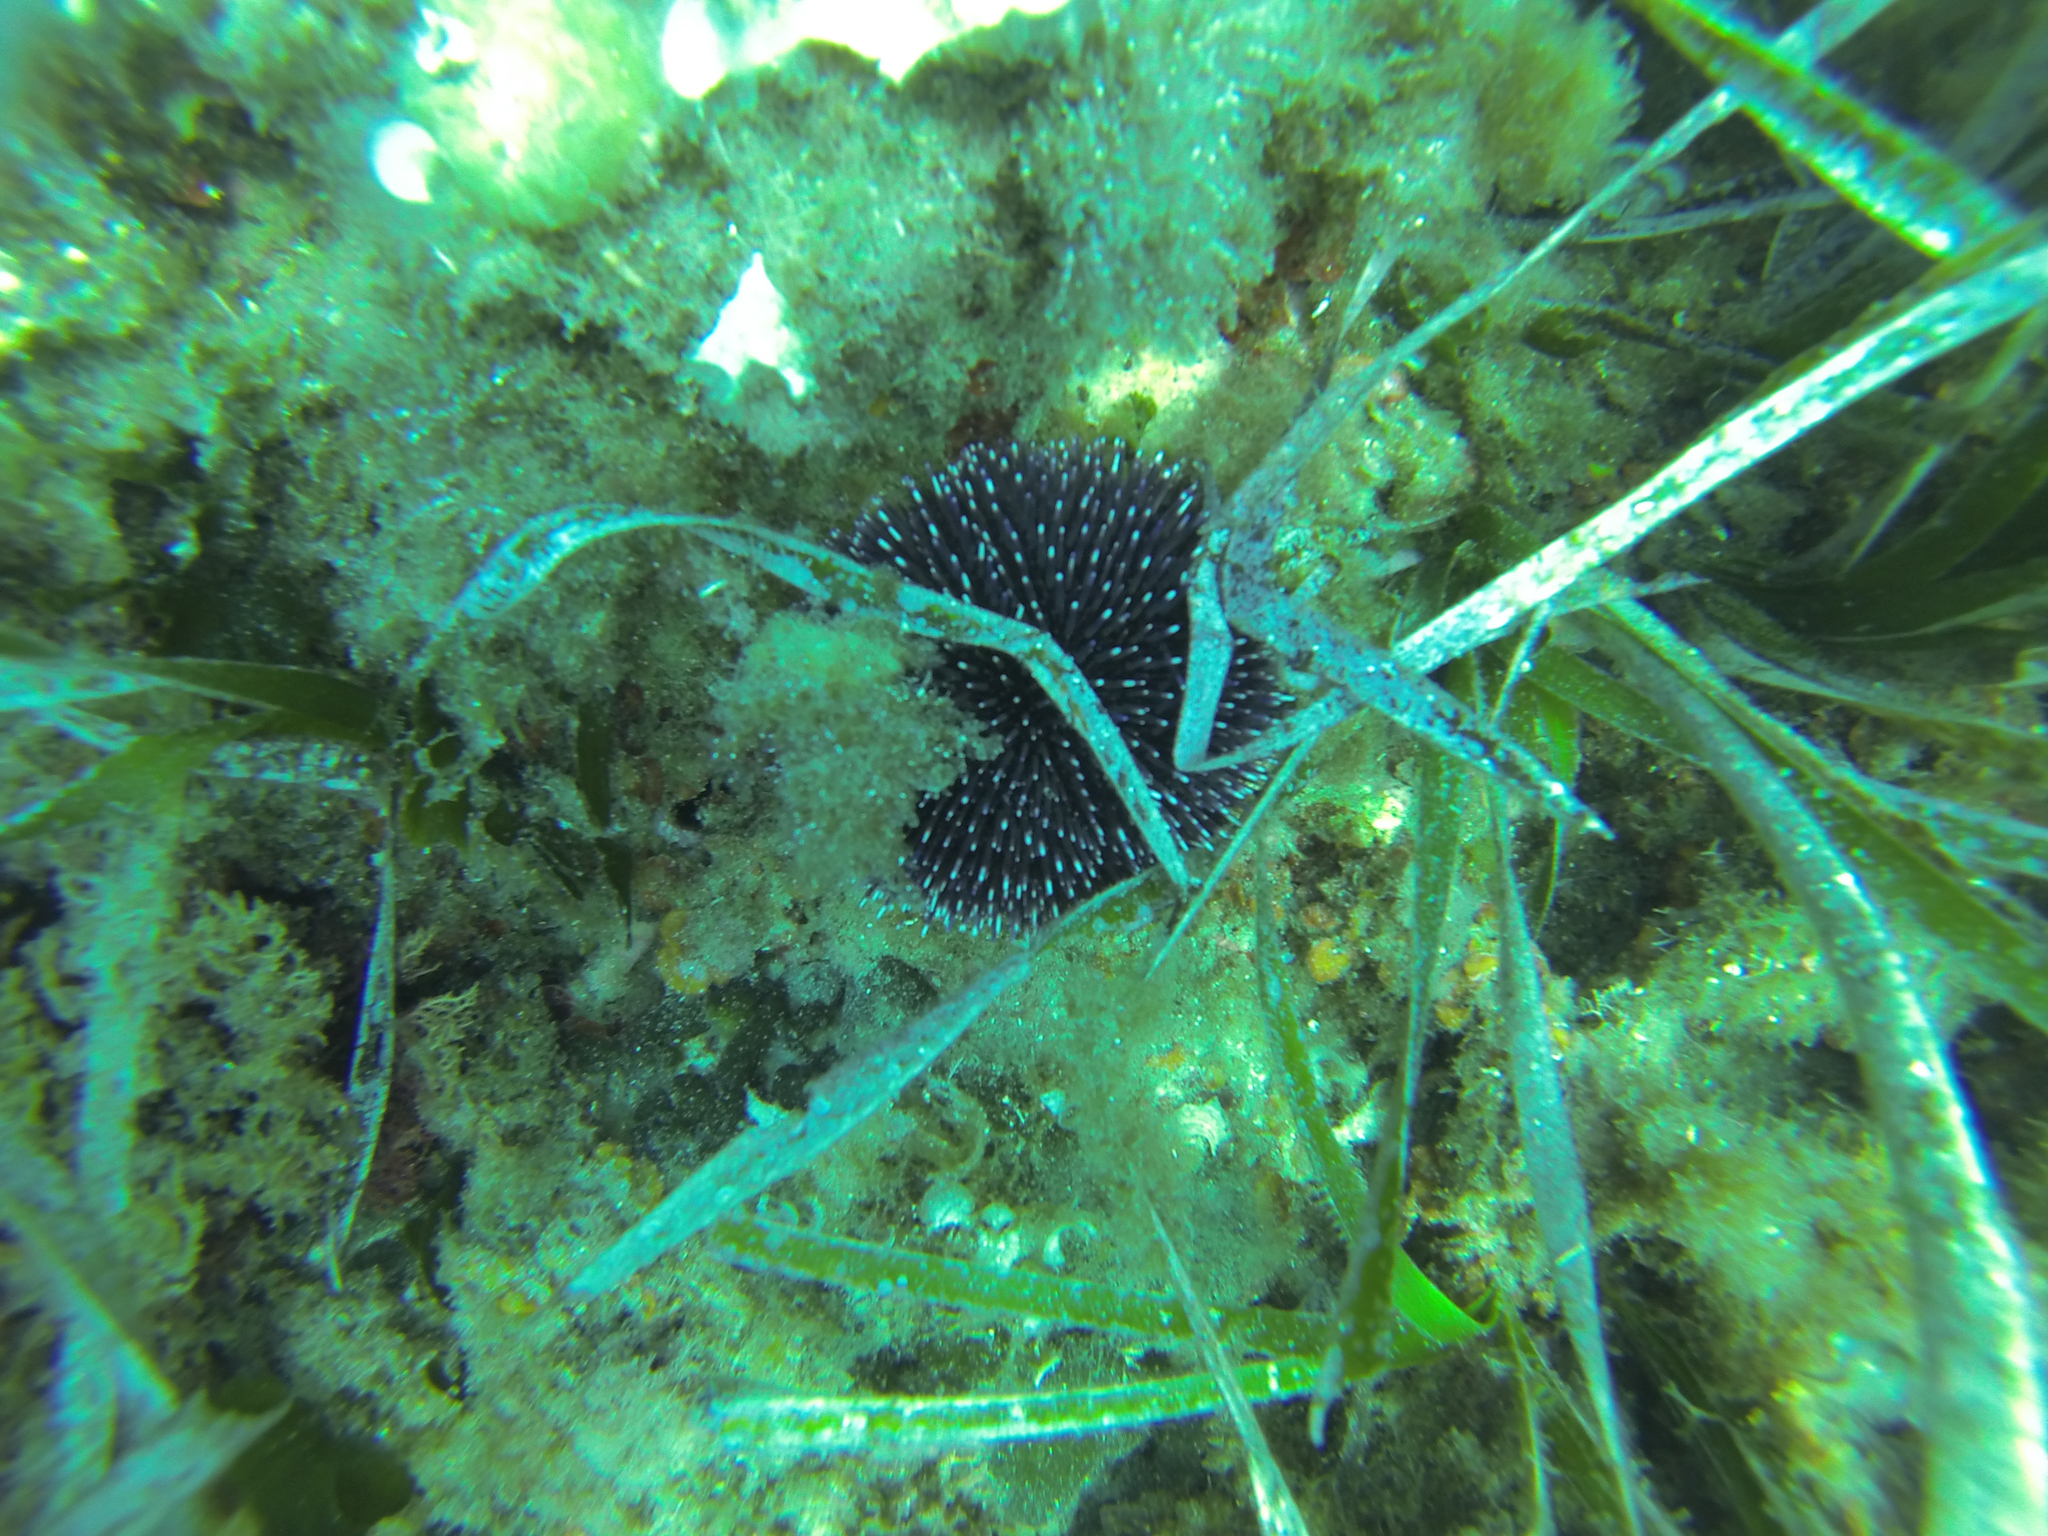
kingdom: Animalia
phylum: Echinodermata
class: Echinoidea
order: Camarodonta
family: Toxopneustidae
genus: Sphaerechinus
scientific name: Sphaerechinus granularis
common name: Violet sea urchin
